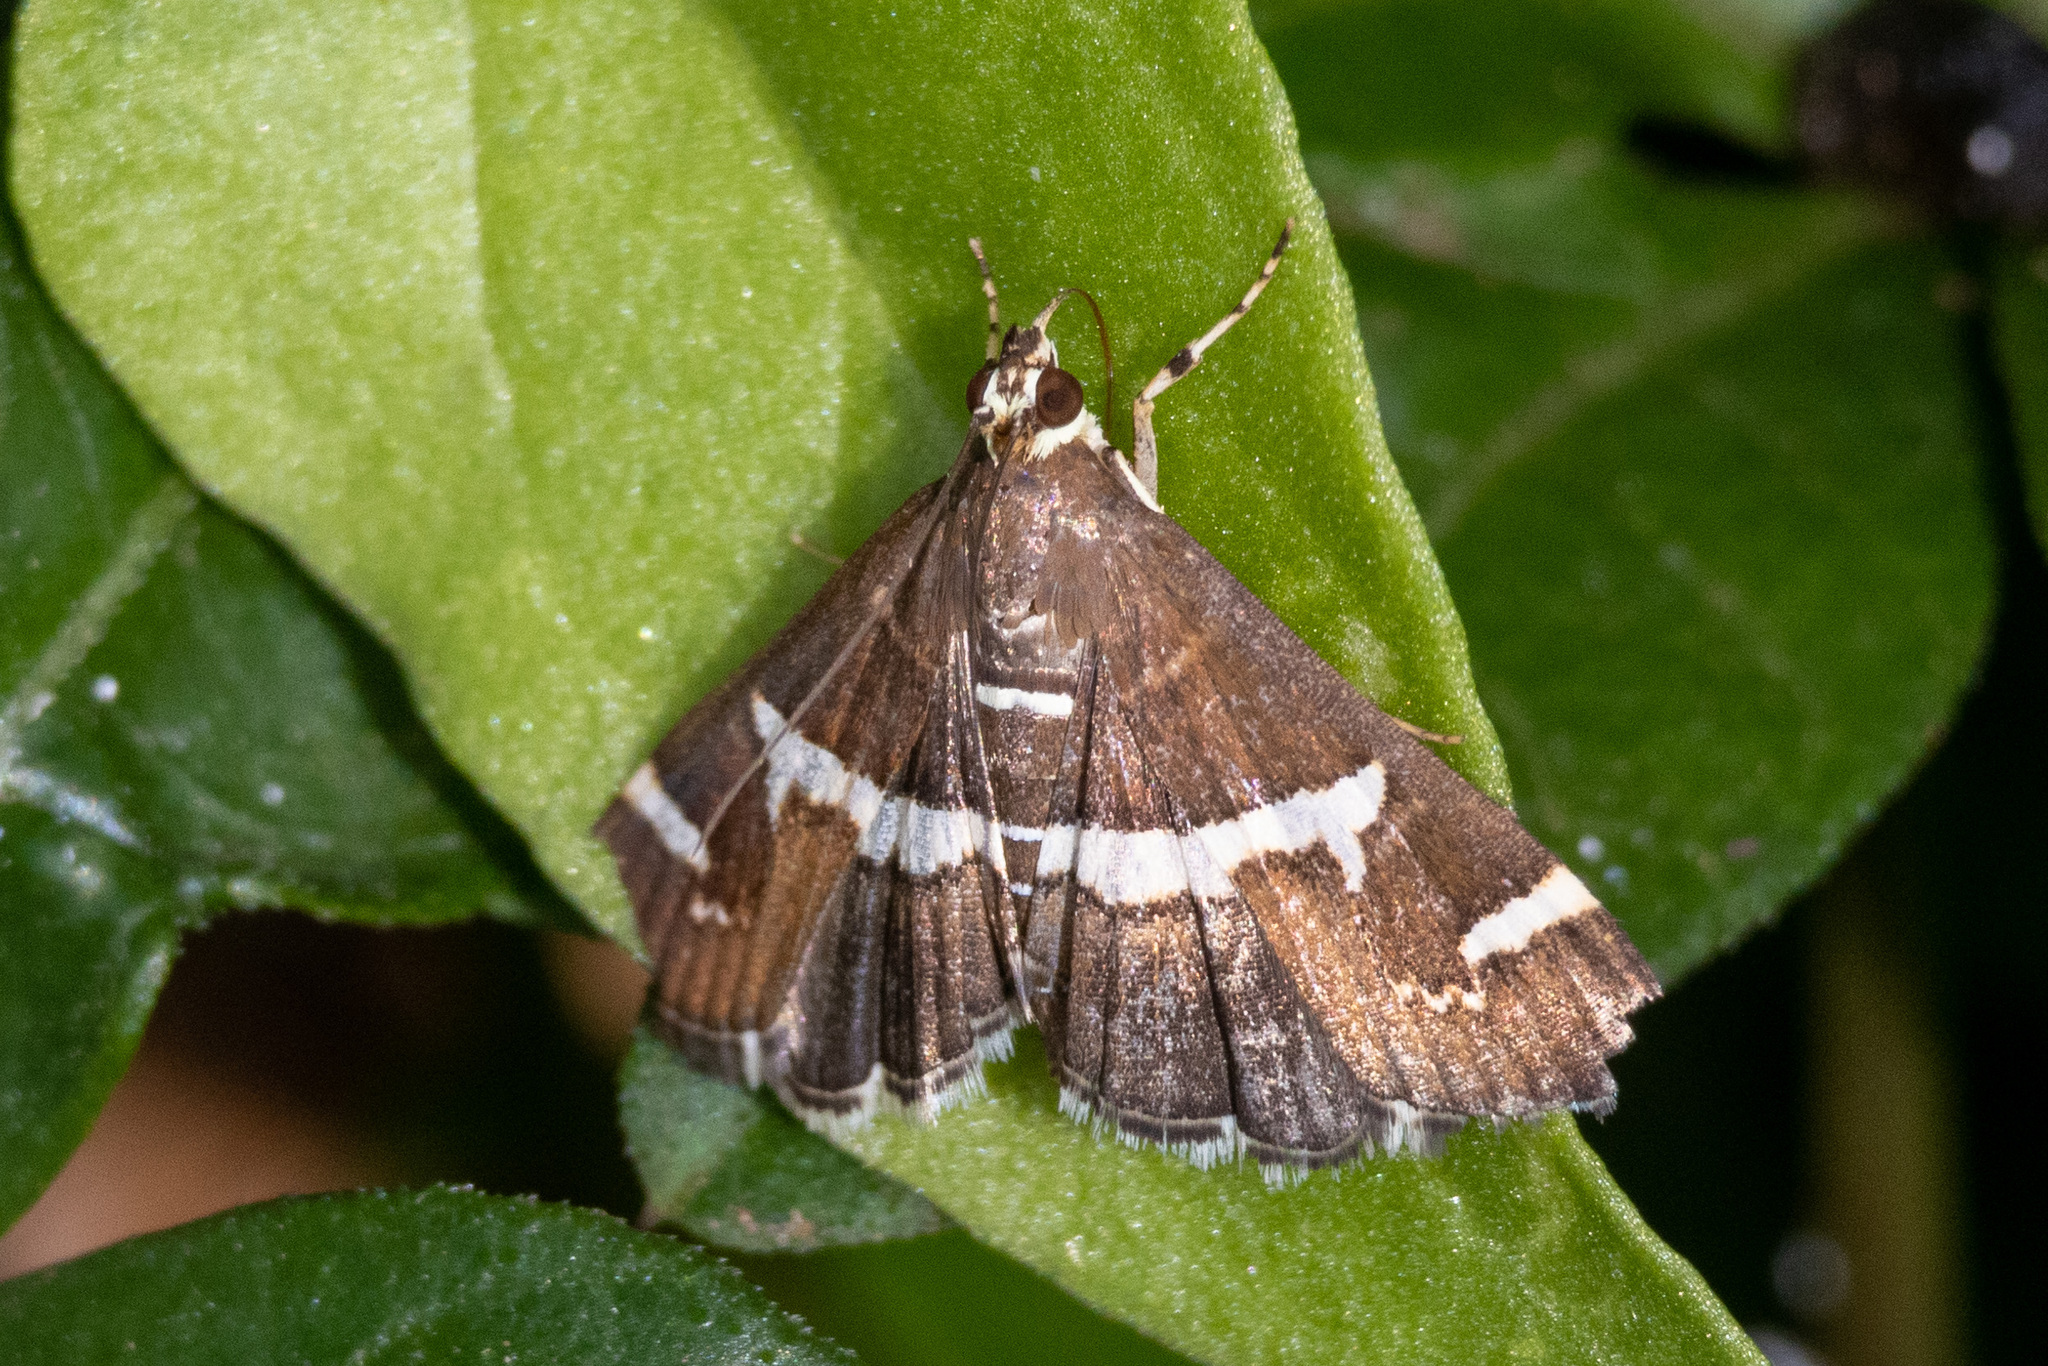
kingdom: Animalia
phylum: Arthropoda
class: Insecta
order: Lepidoptera
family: Crambidae
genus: Spoladea
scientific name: Spoladea recurvalis
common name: Beet webworm moth
